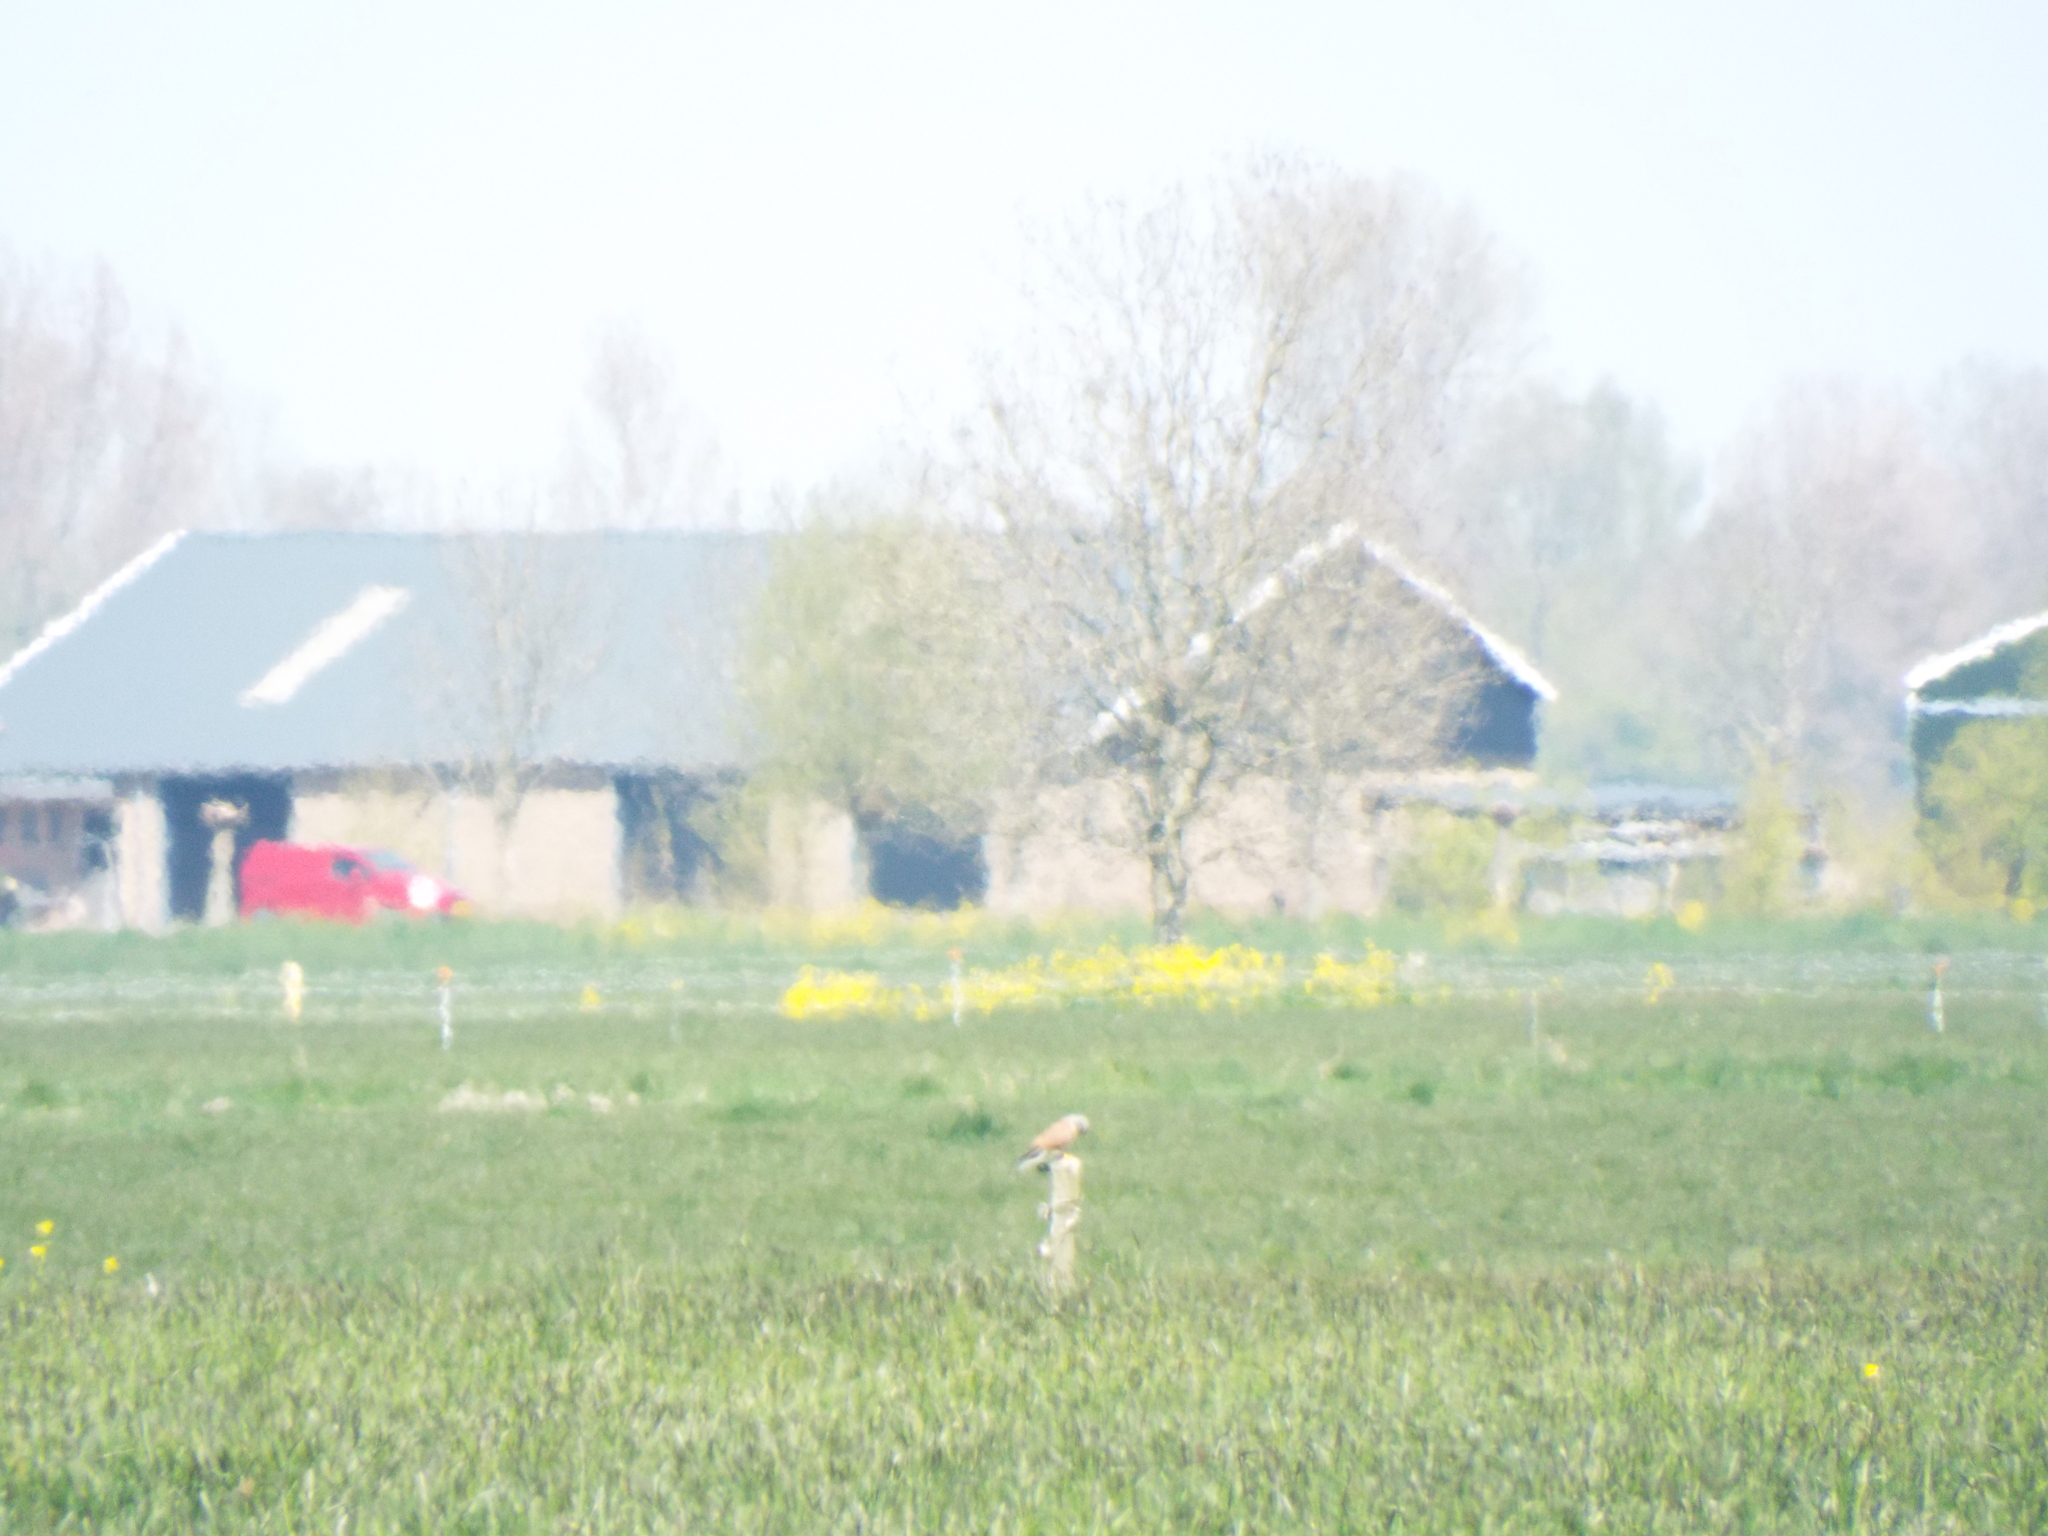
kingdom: Animalia
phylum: Chordata
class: Aves
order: Falconiformes
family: Falconidae
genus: Falco
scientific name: Falco tinnunculus
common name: Common kestrel
